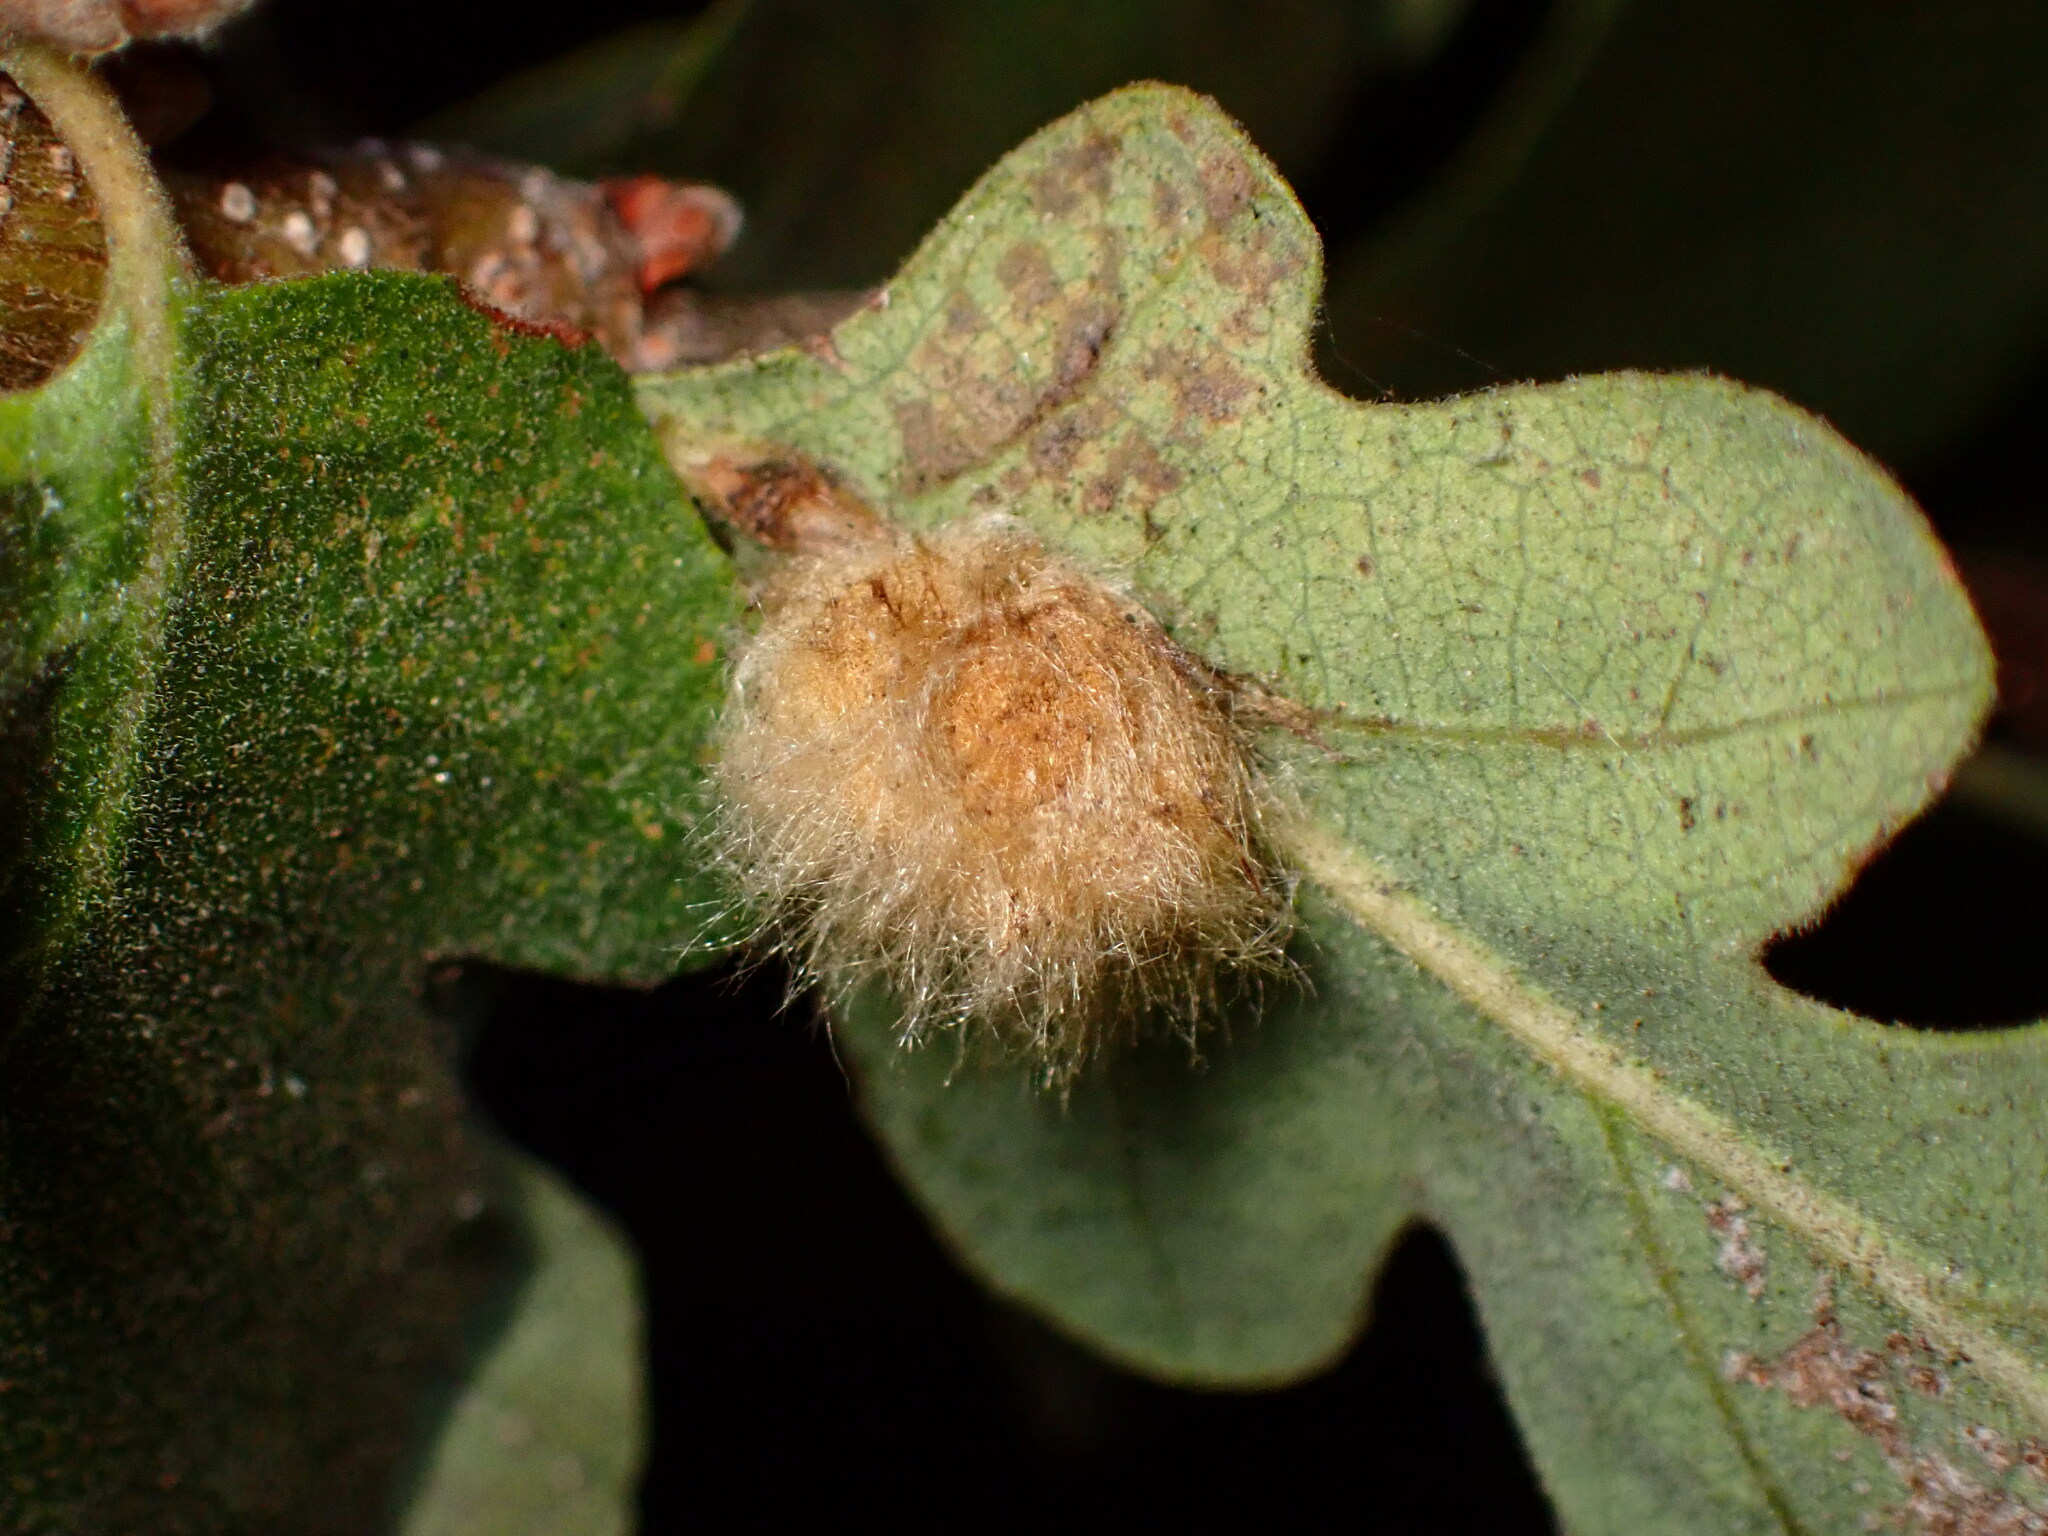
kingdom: Animalia
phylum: Arthropoda
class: Insecta
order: Hymenoptera
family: Cynipidae
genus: Andricus
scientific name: Andricus Druon fullawayi
